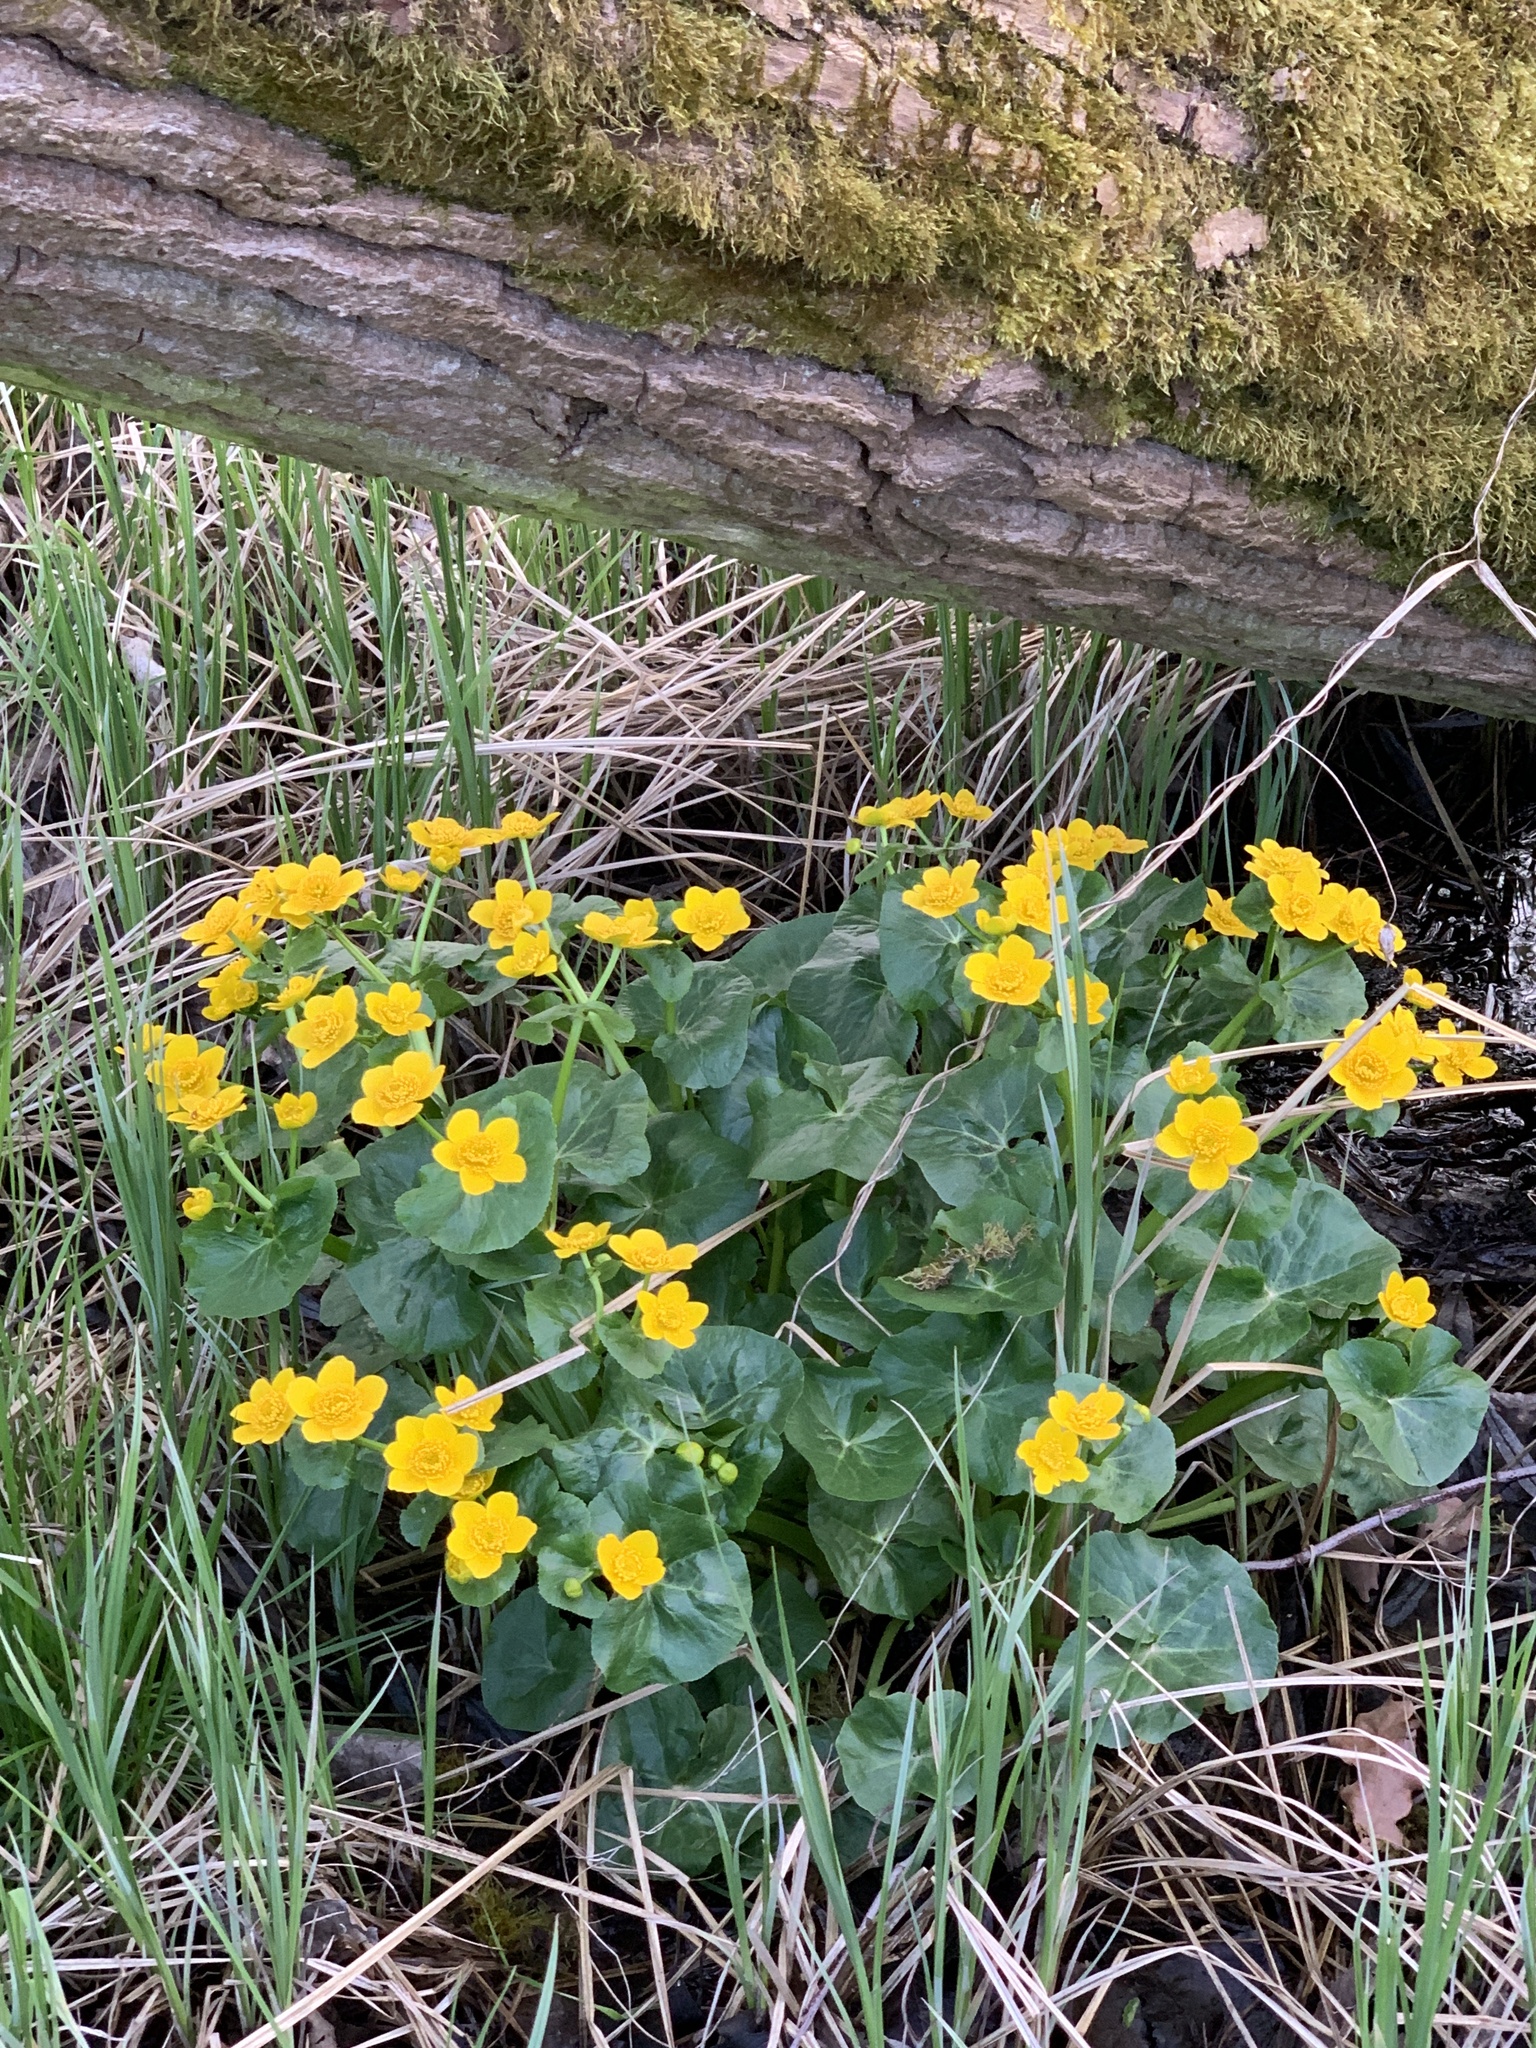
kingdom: Plantae
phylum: Tracheophyta
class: Magnoliopsida
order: Ranunculales
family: Ranunculaceae
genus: Caltha
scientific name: Caltha palustris
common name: Marsh marigold
